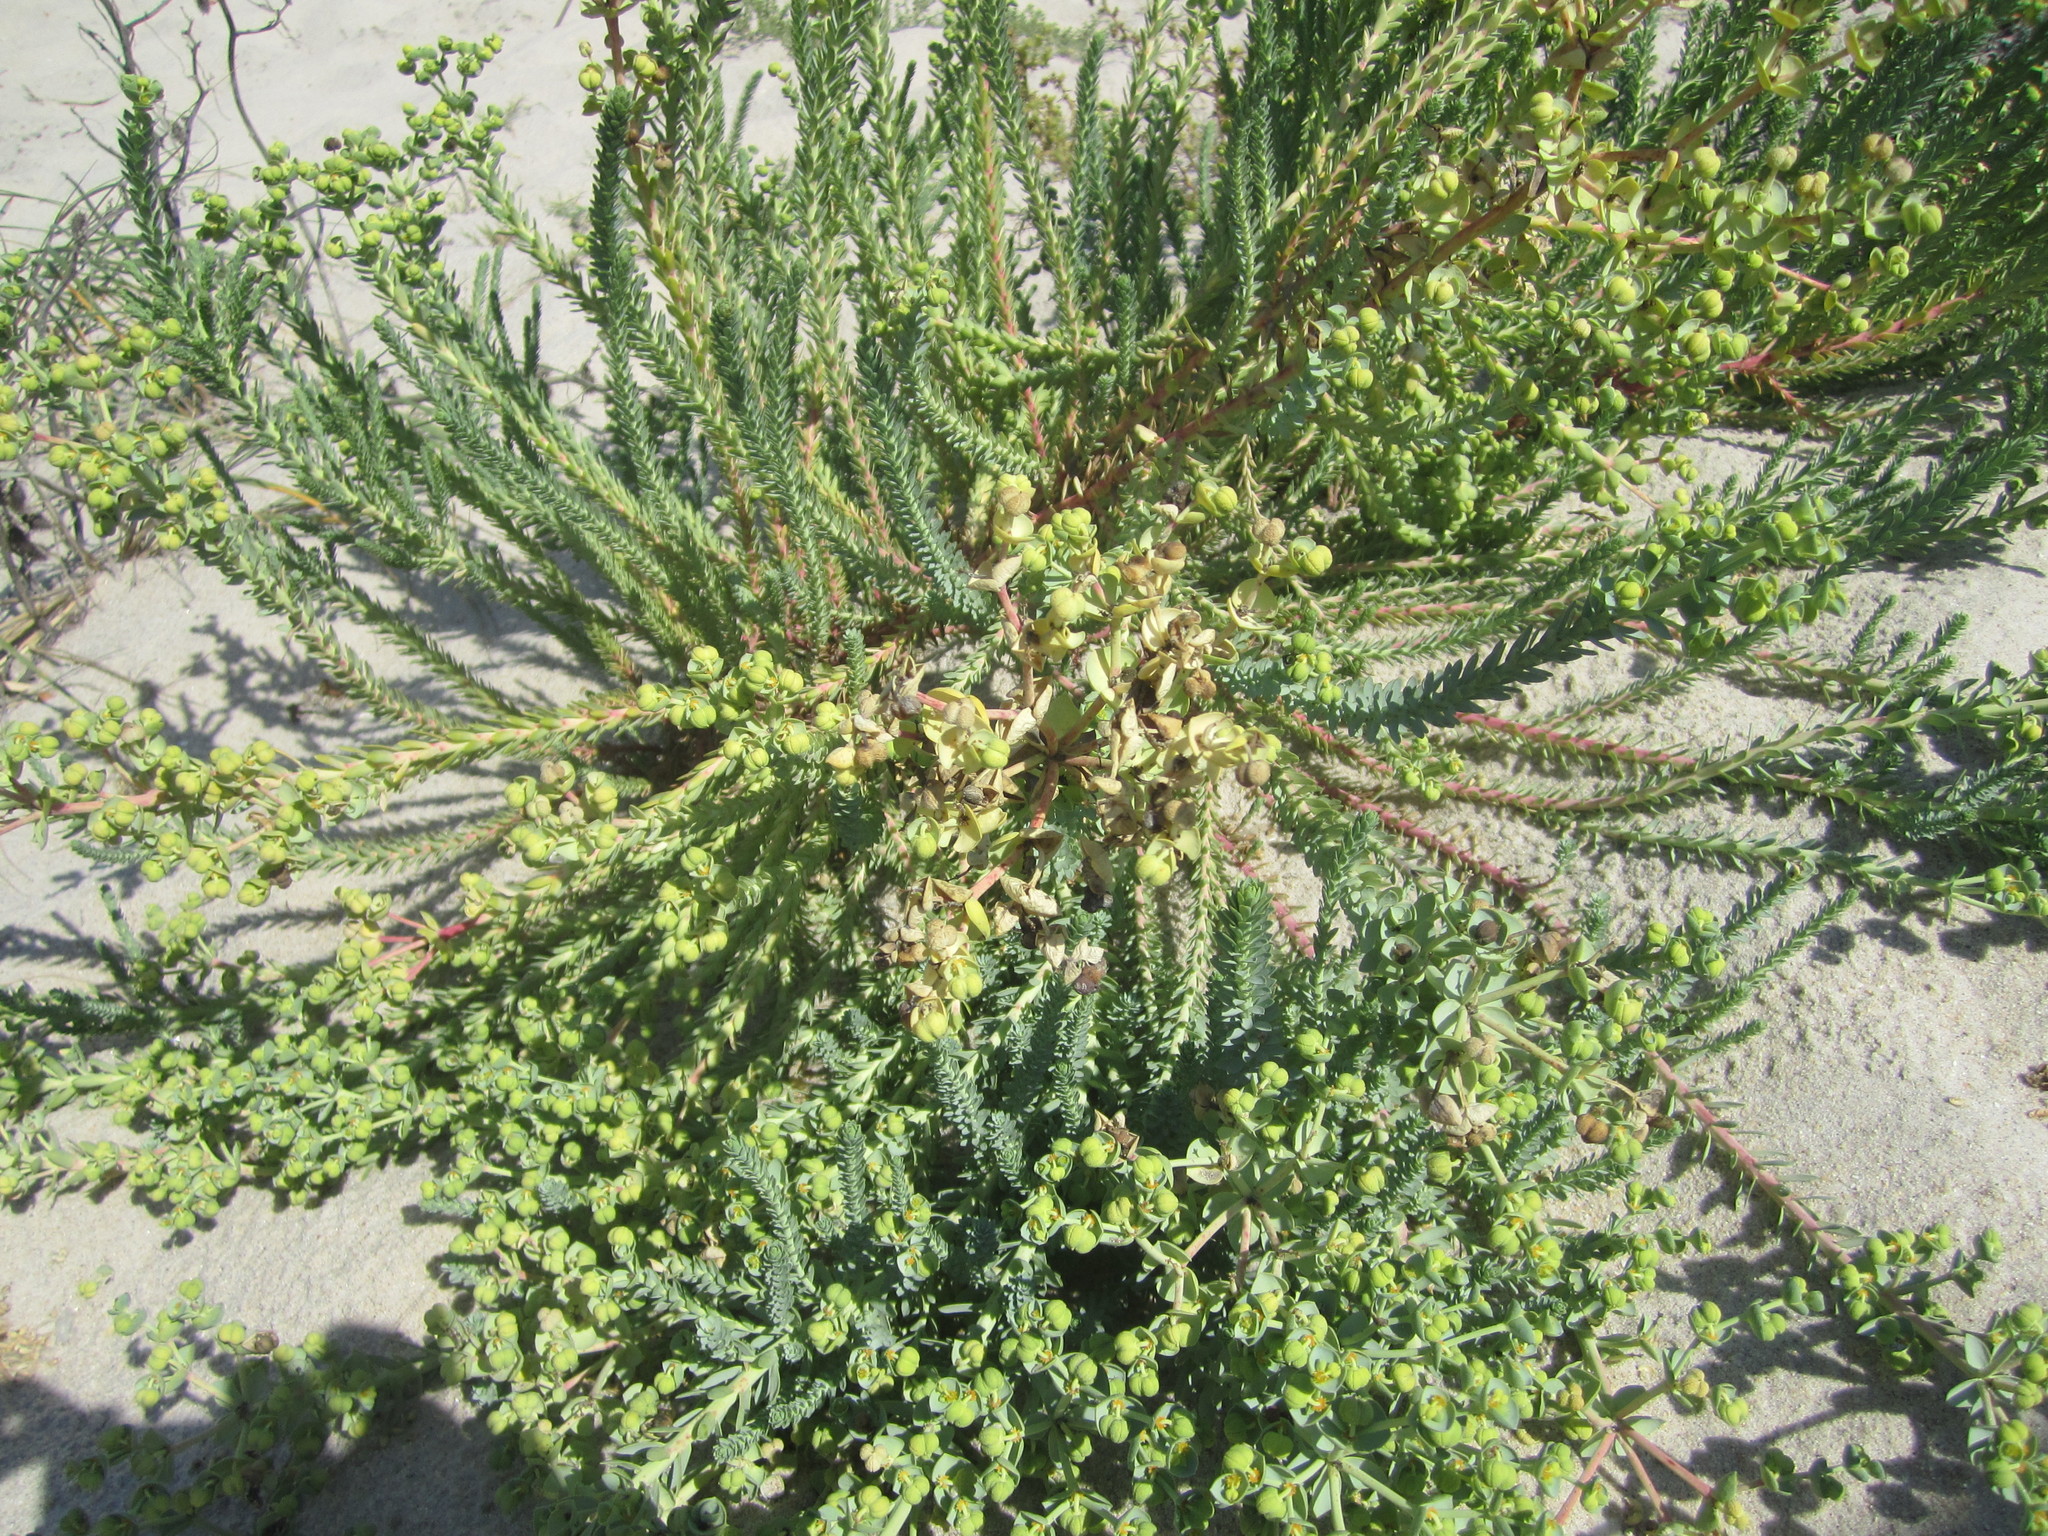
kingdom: Plantae
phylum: Tracheophyta
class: Magnoliopsida
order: Malpighiales
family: Euphorbiaceae
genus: Euphorbia
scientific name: Euphorbia paralias
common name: Sea spurge
